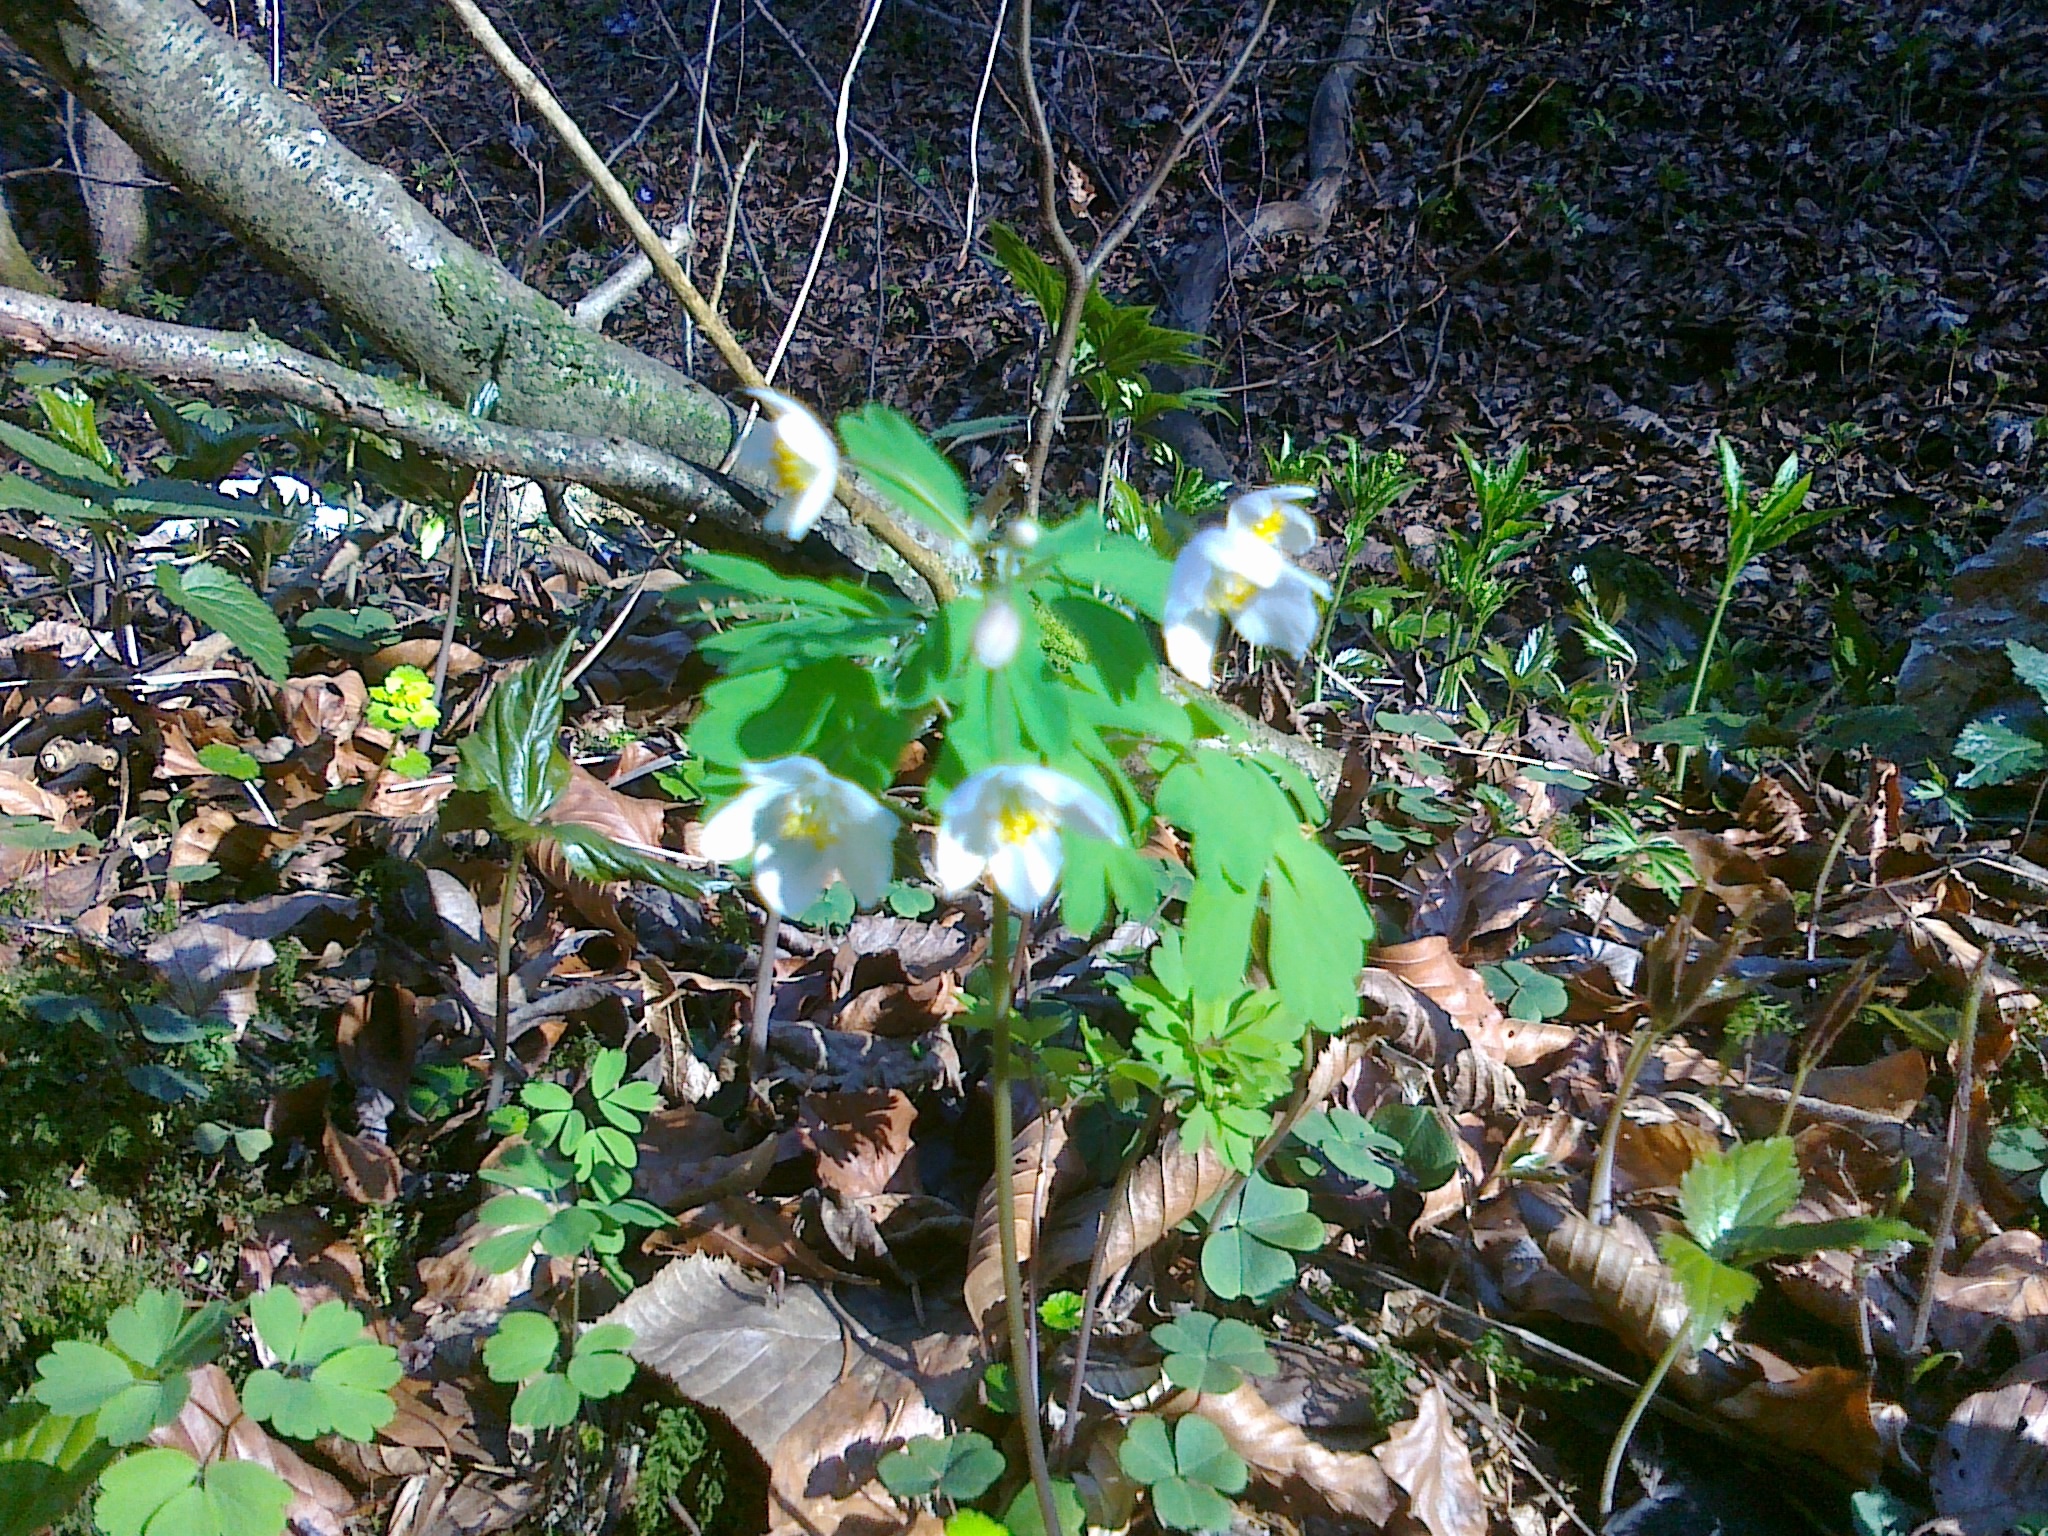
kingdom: Plantae
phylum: Tracheophyta
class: Magnoliopsida
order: Ranunculales
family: Ranunculaceae
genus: Isopyrum
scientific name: Isopyrum thalictroides
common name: Isopyrum
